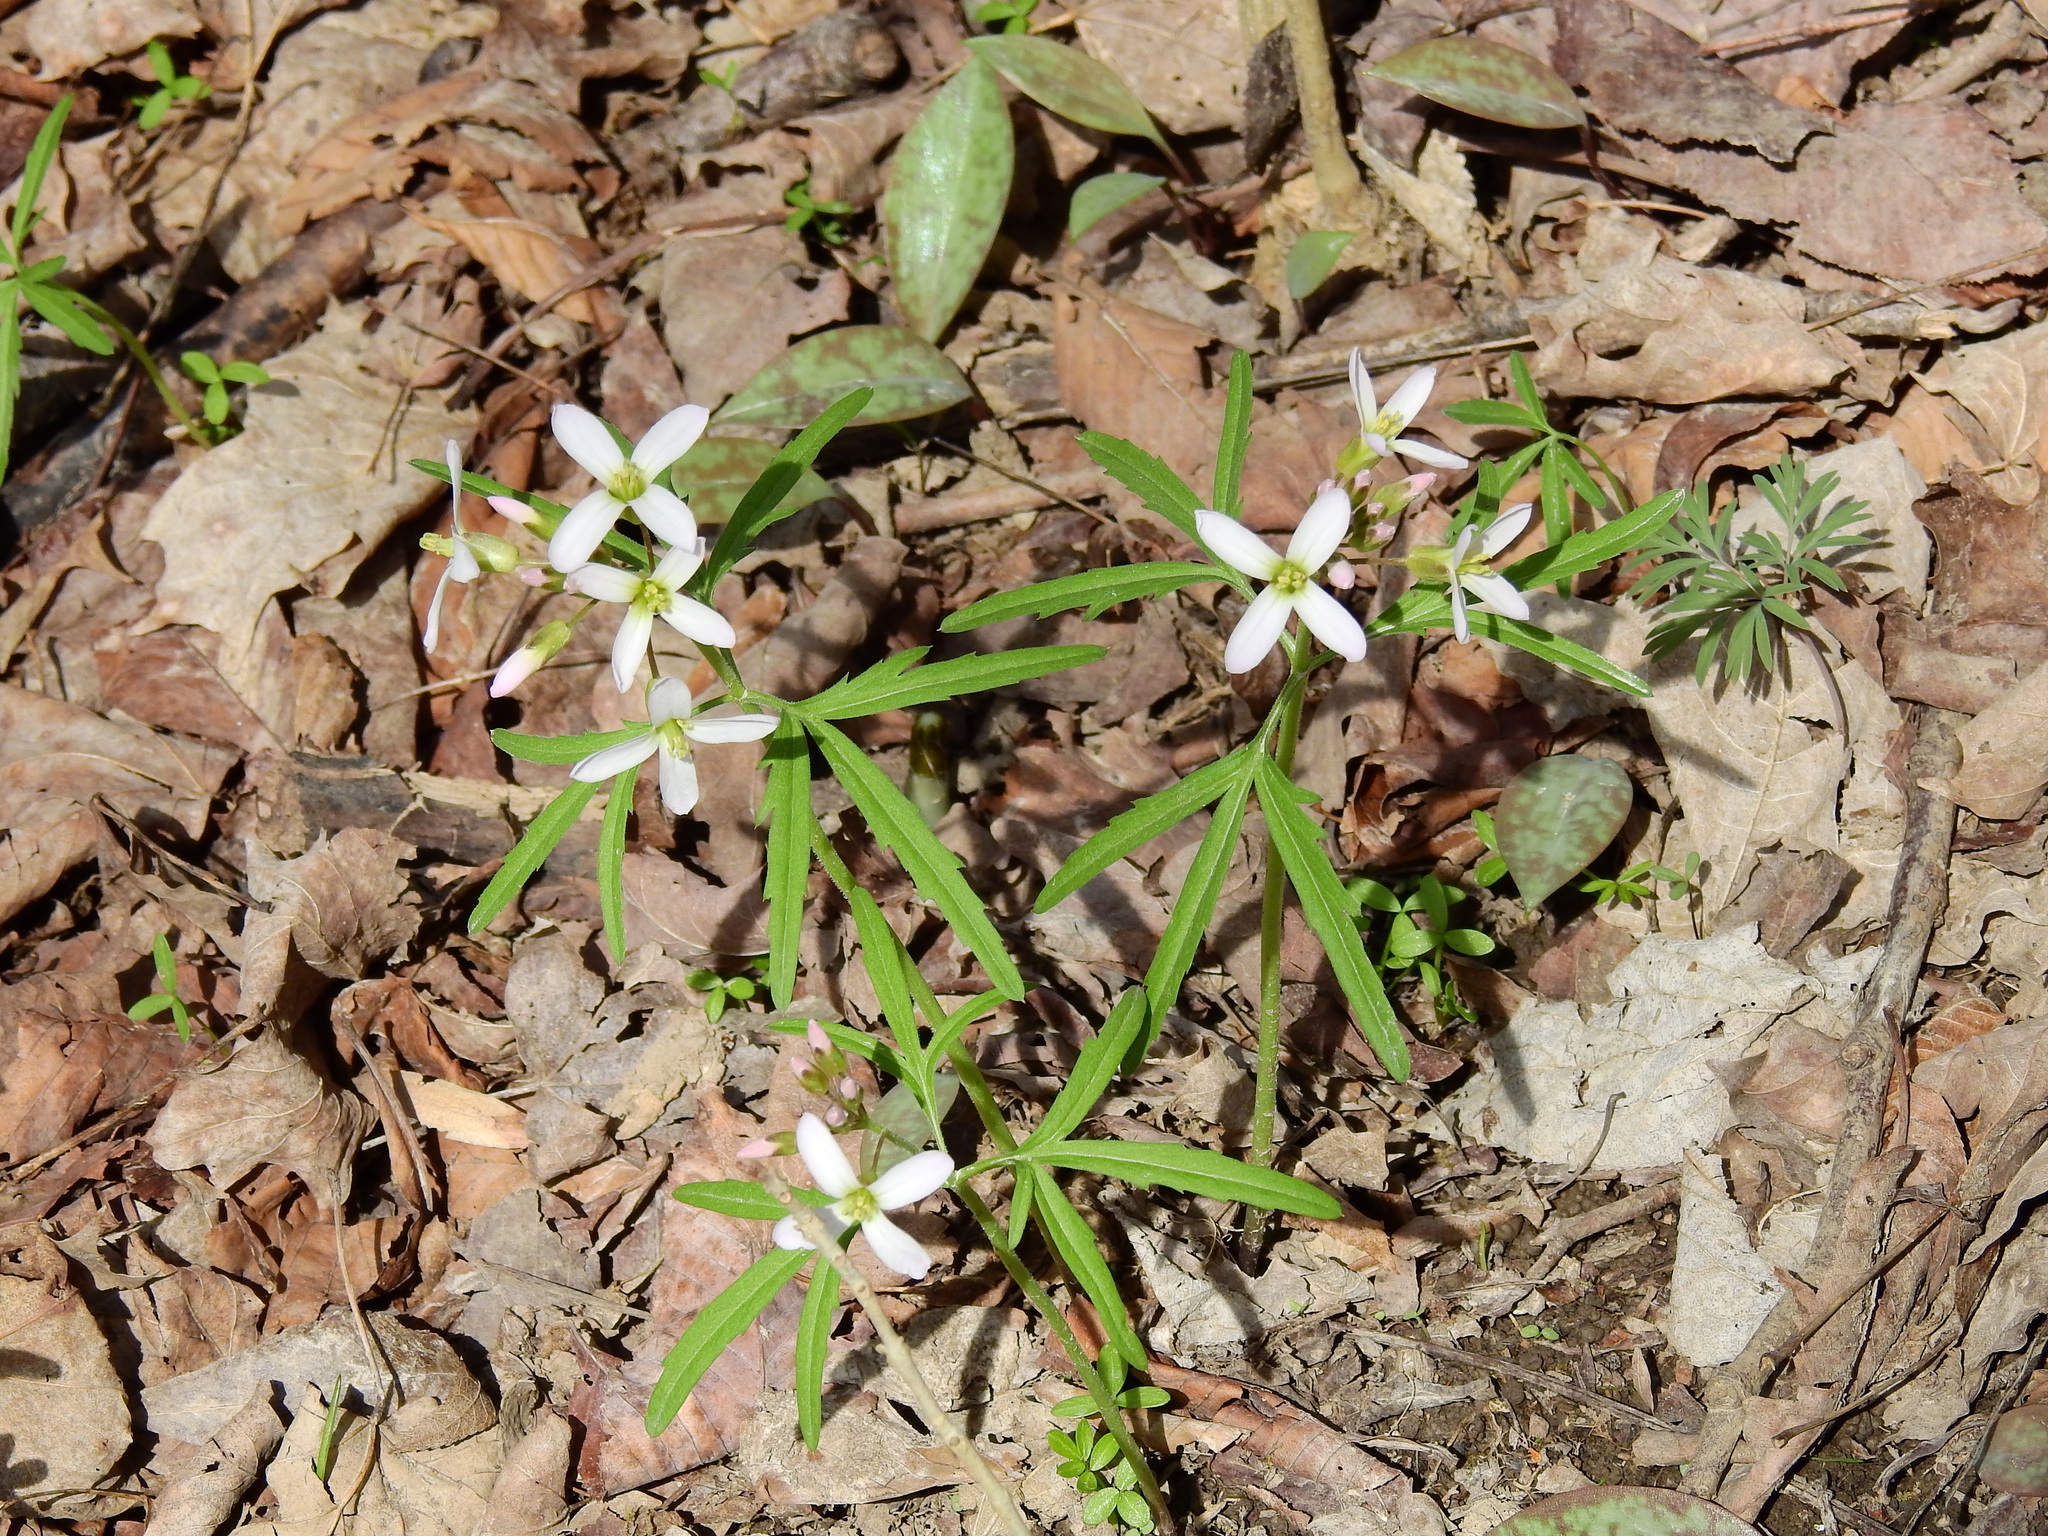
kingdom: Plantae
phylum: Tracheophyta
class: Magnoliopsida
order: Brassicales
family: Brassicaceae
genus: Cardamine
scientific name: Cardamine concatenata
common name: Cut-leaf toothcup
